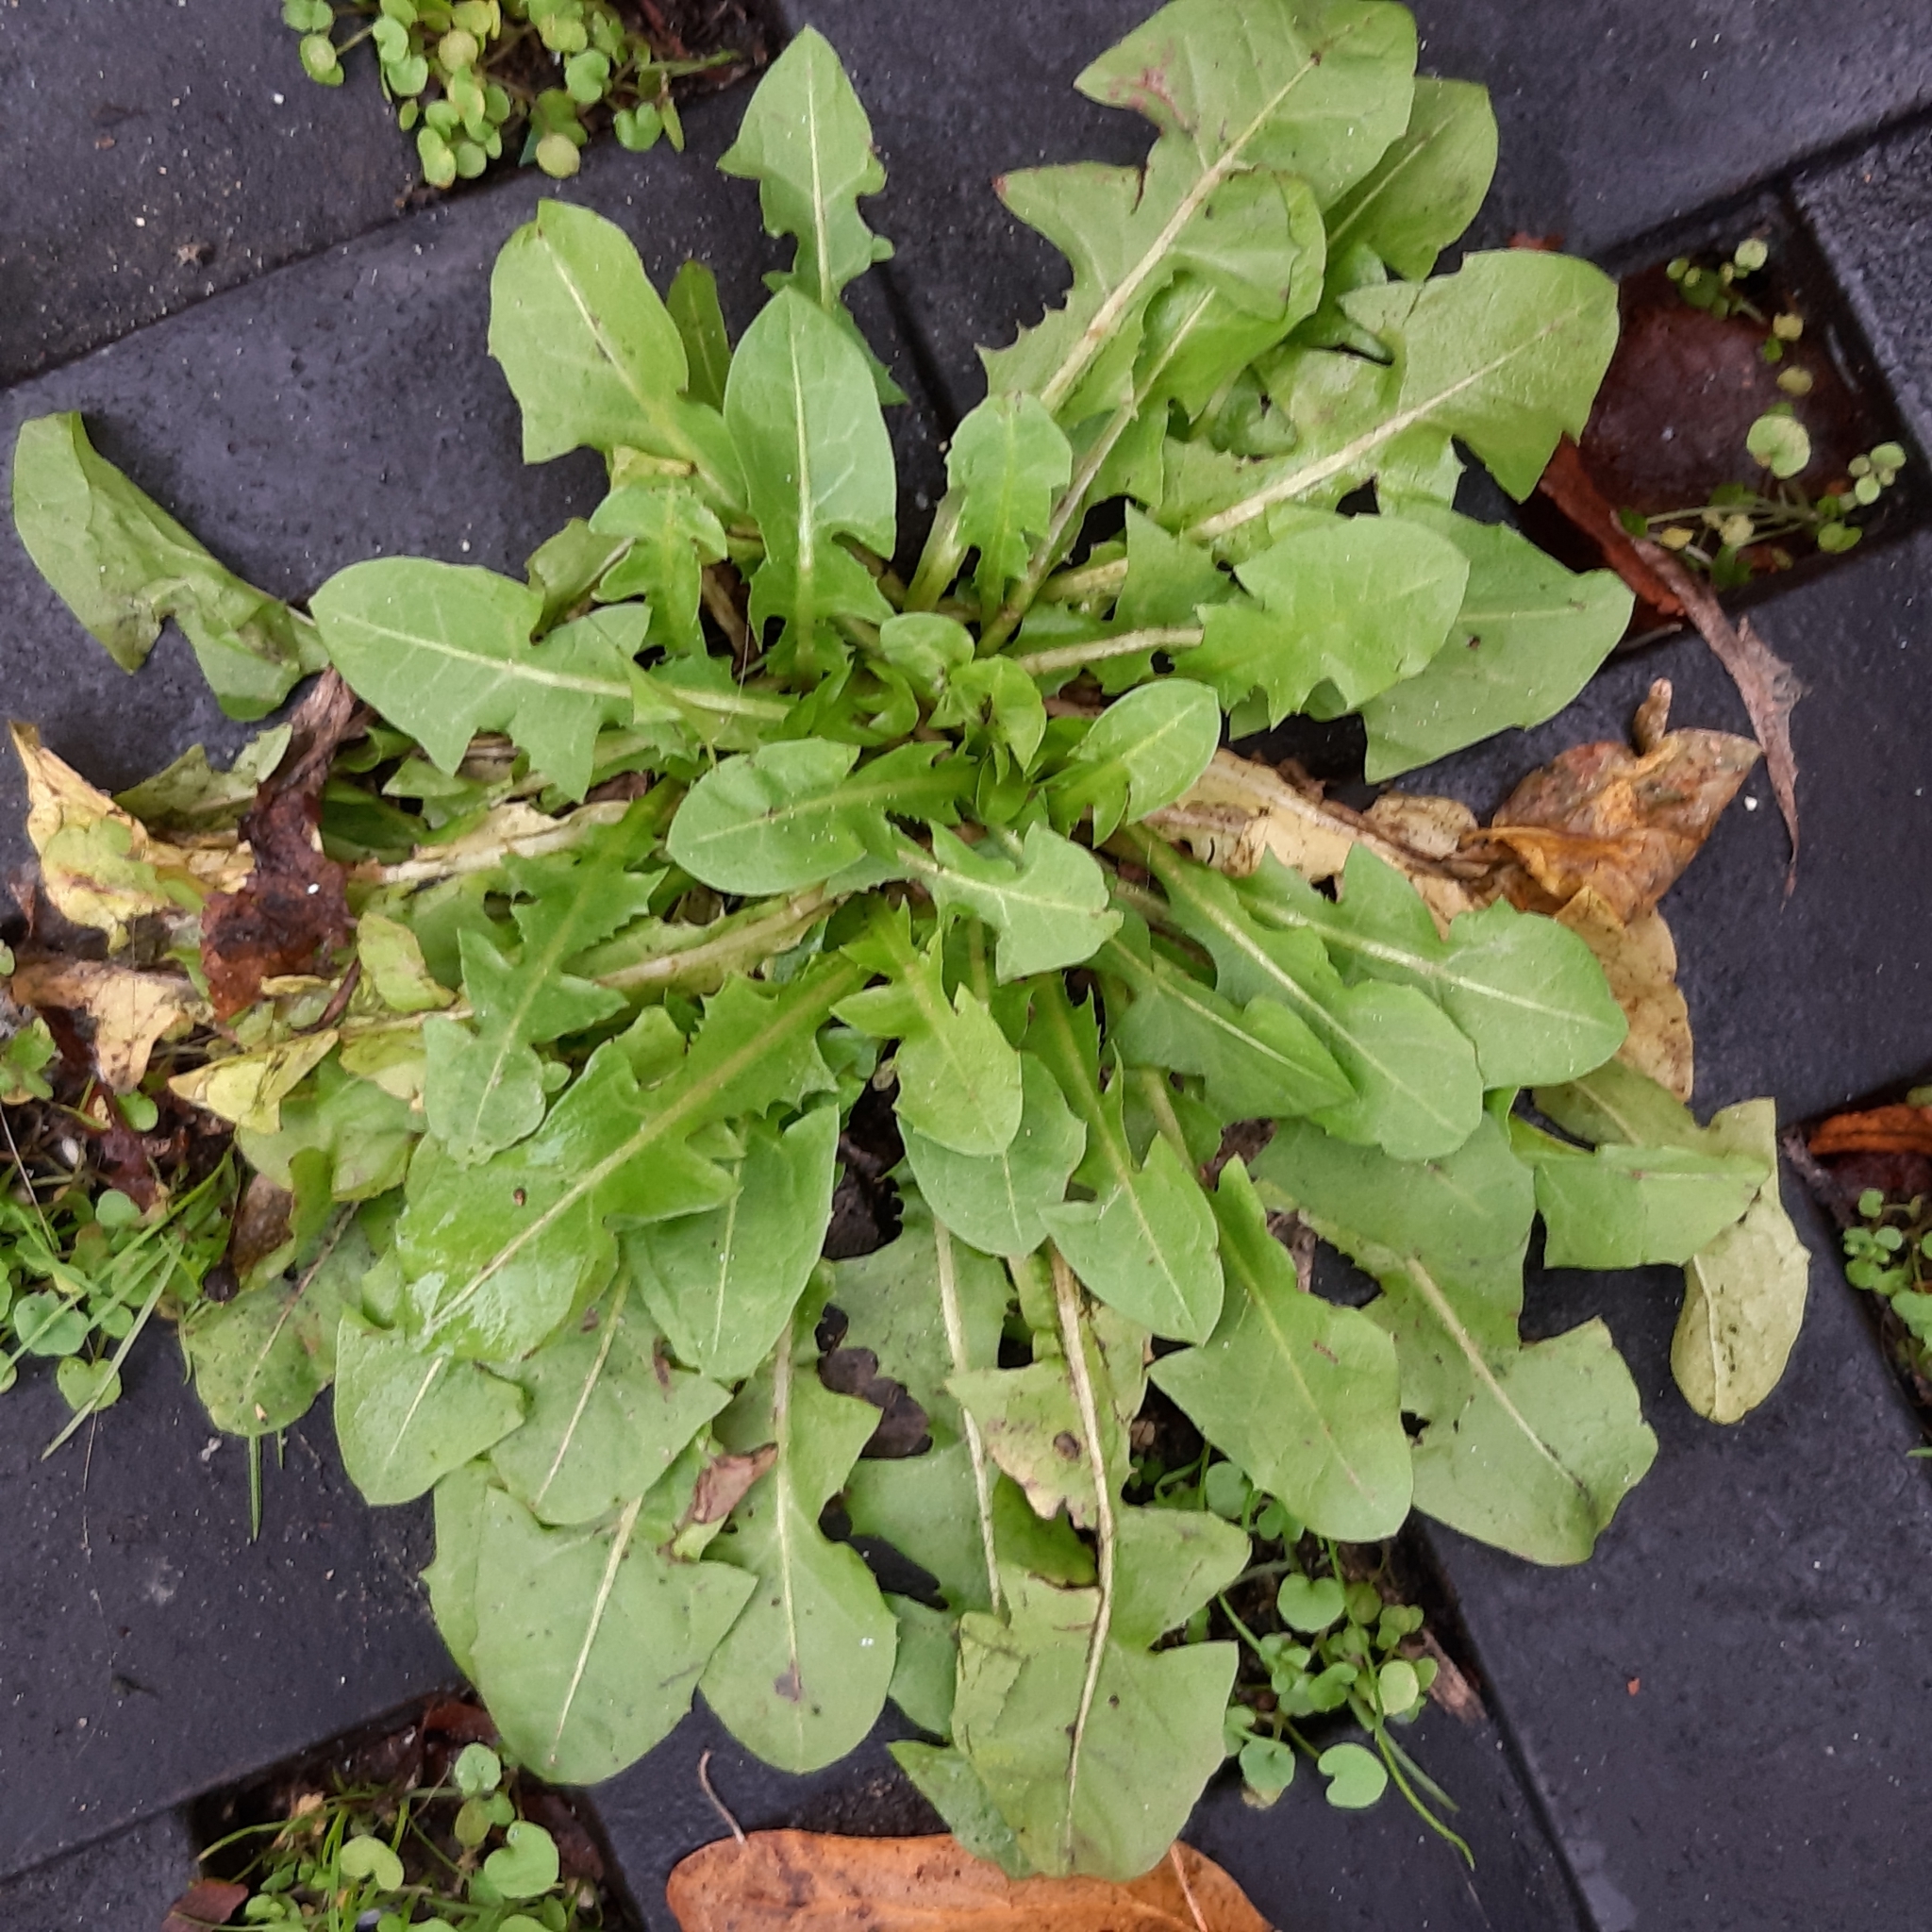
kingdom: Plantae
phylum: Tracheophyta
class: Magnoliopsida
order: Asterales
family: Asteraceae
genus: Taraxacum
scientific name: Taraxacum officinale
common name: Common dandelion
